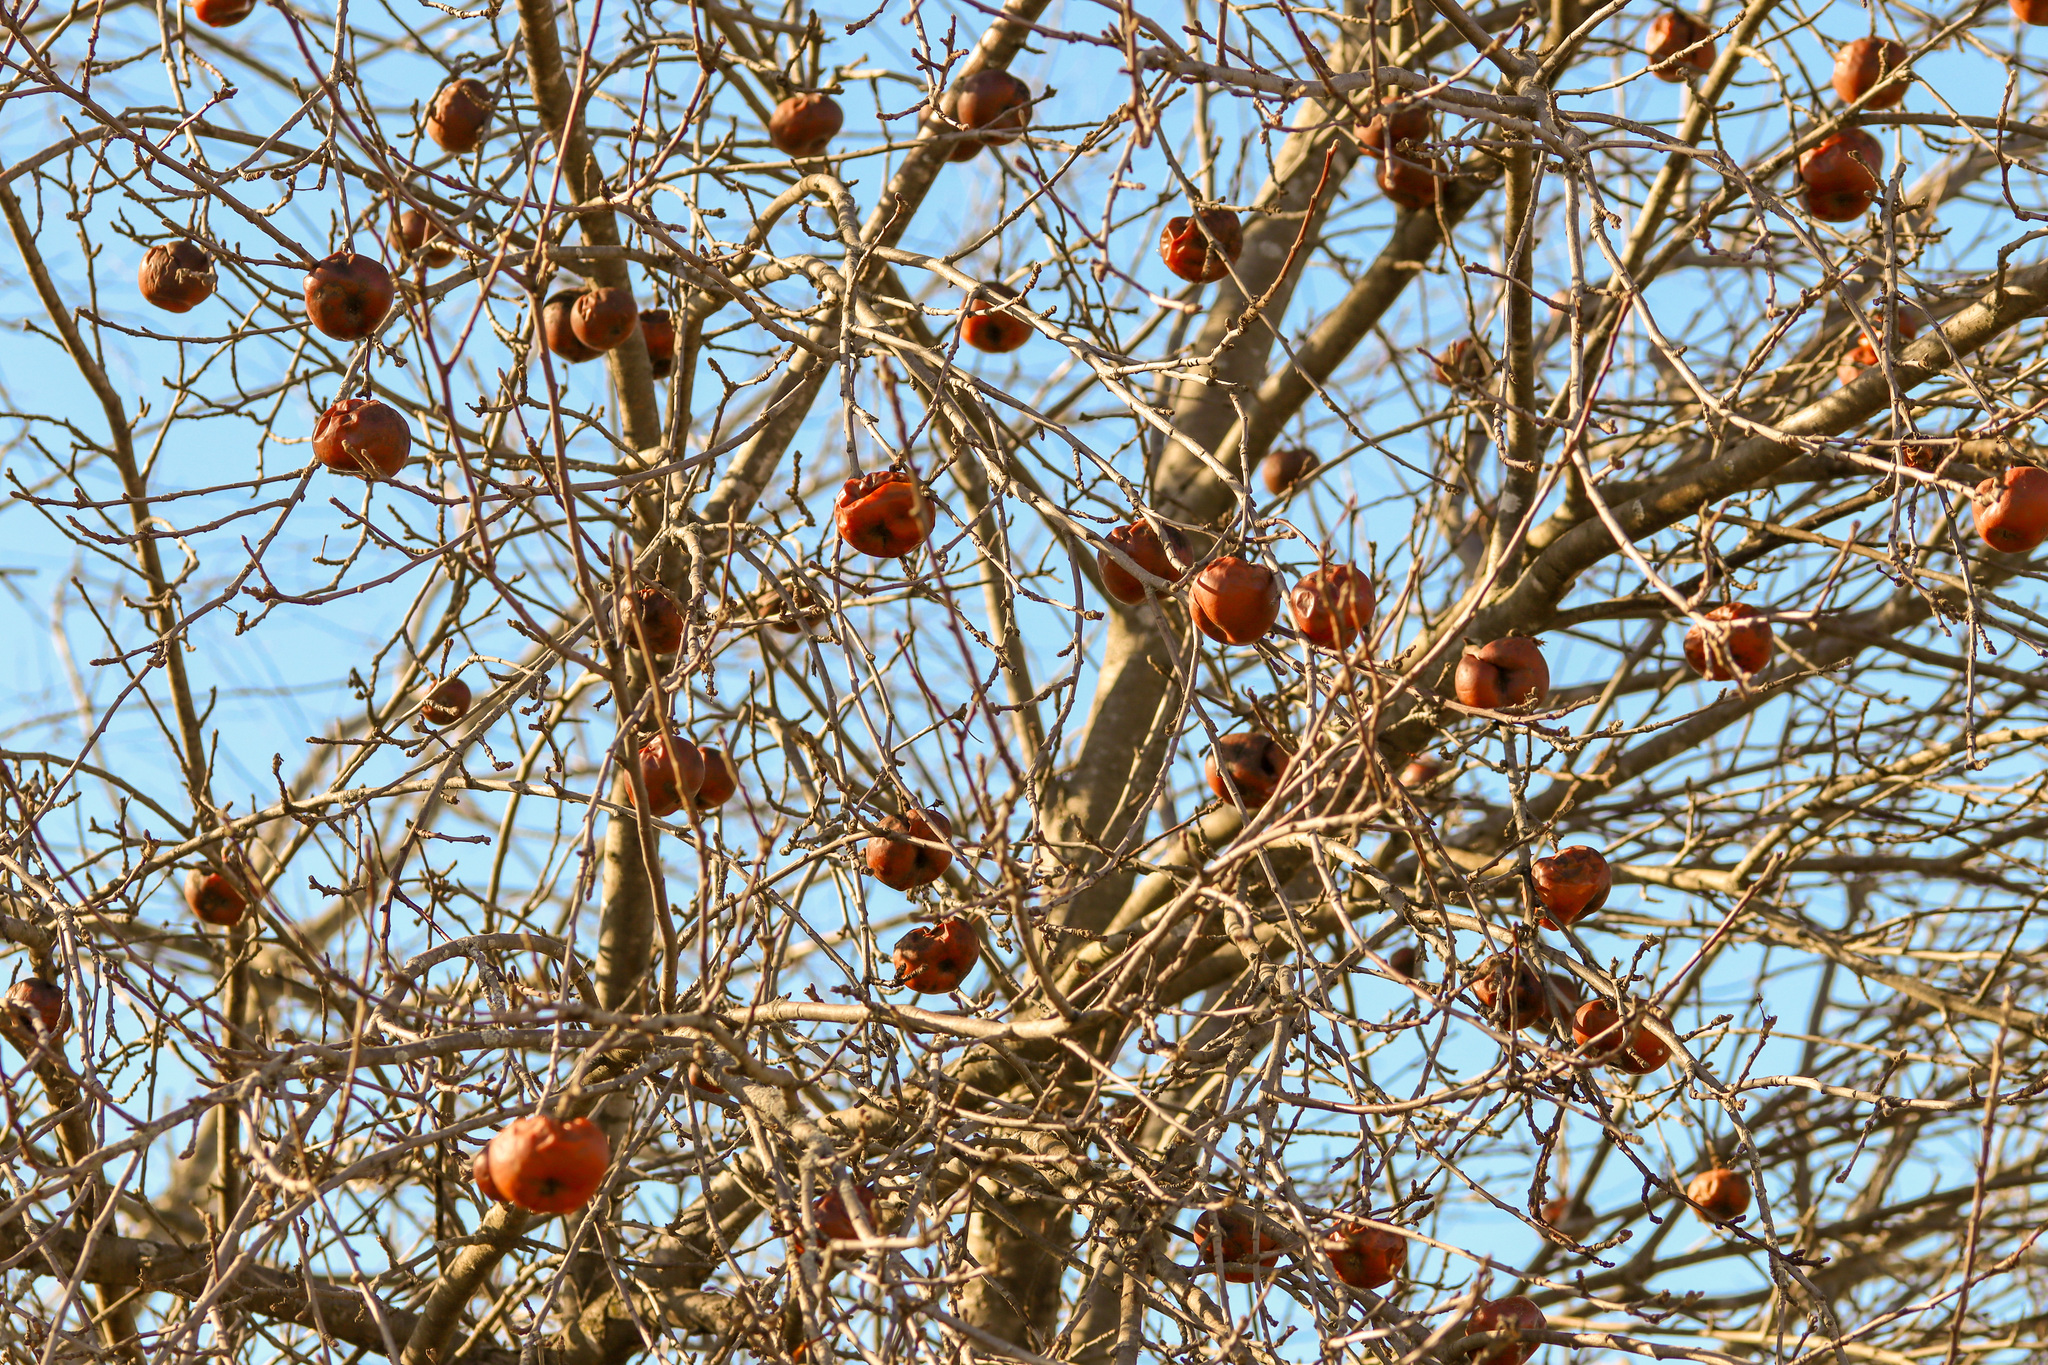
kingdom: Plantae
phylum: Tracheophyta
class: Magnoliopsida
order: Rosales
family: Rosaceae
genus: Malus
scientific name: Malus domestica
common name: Apple
